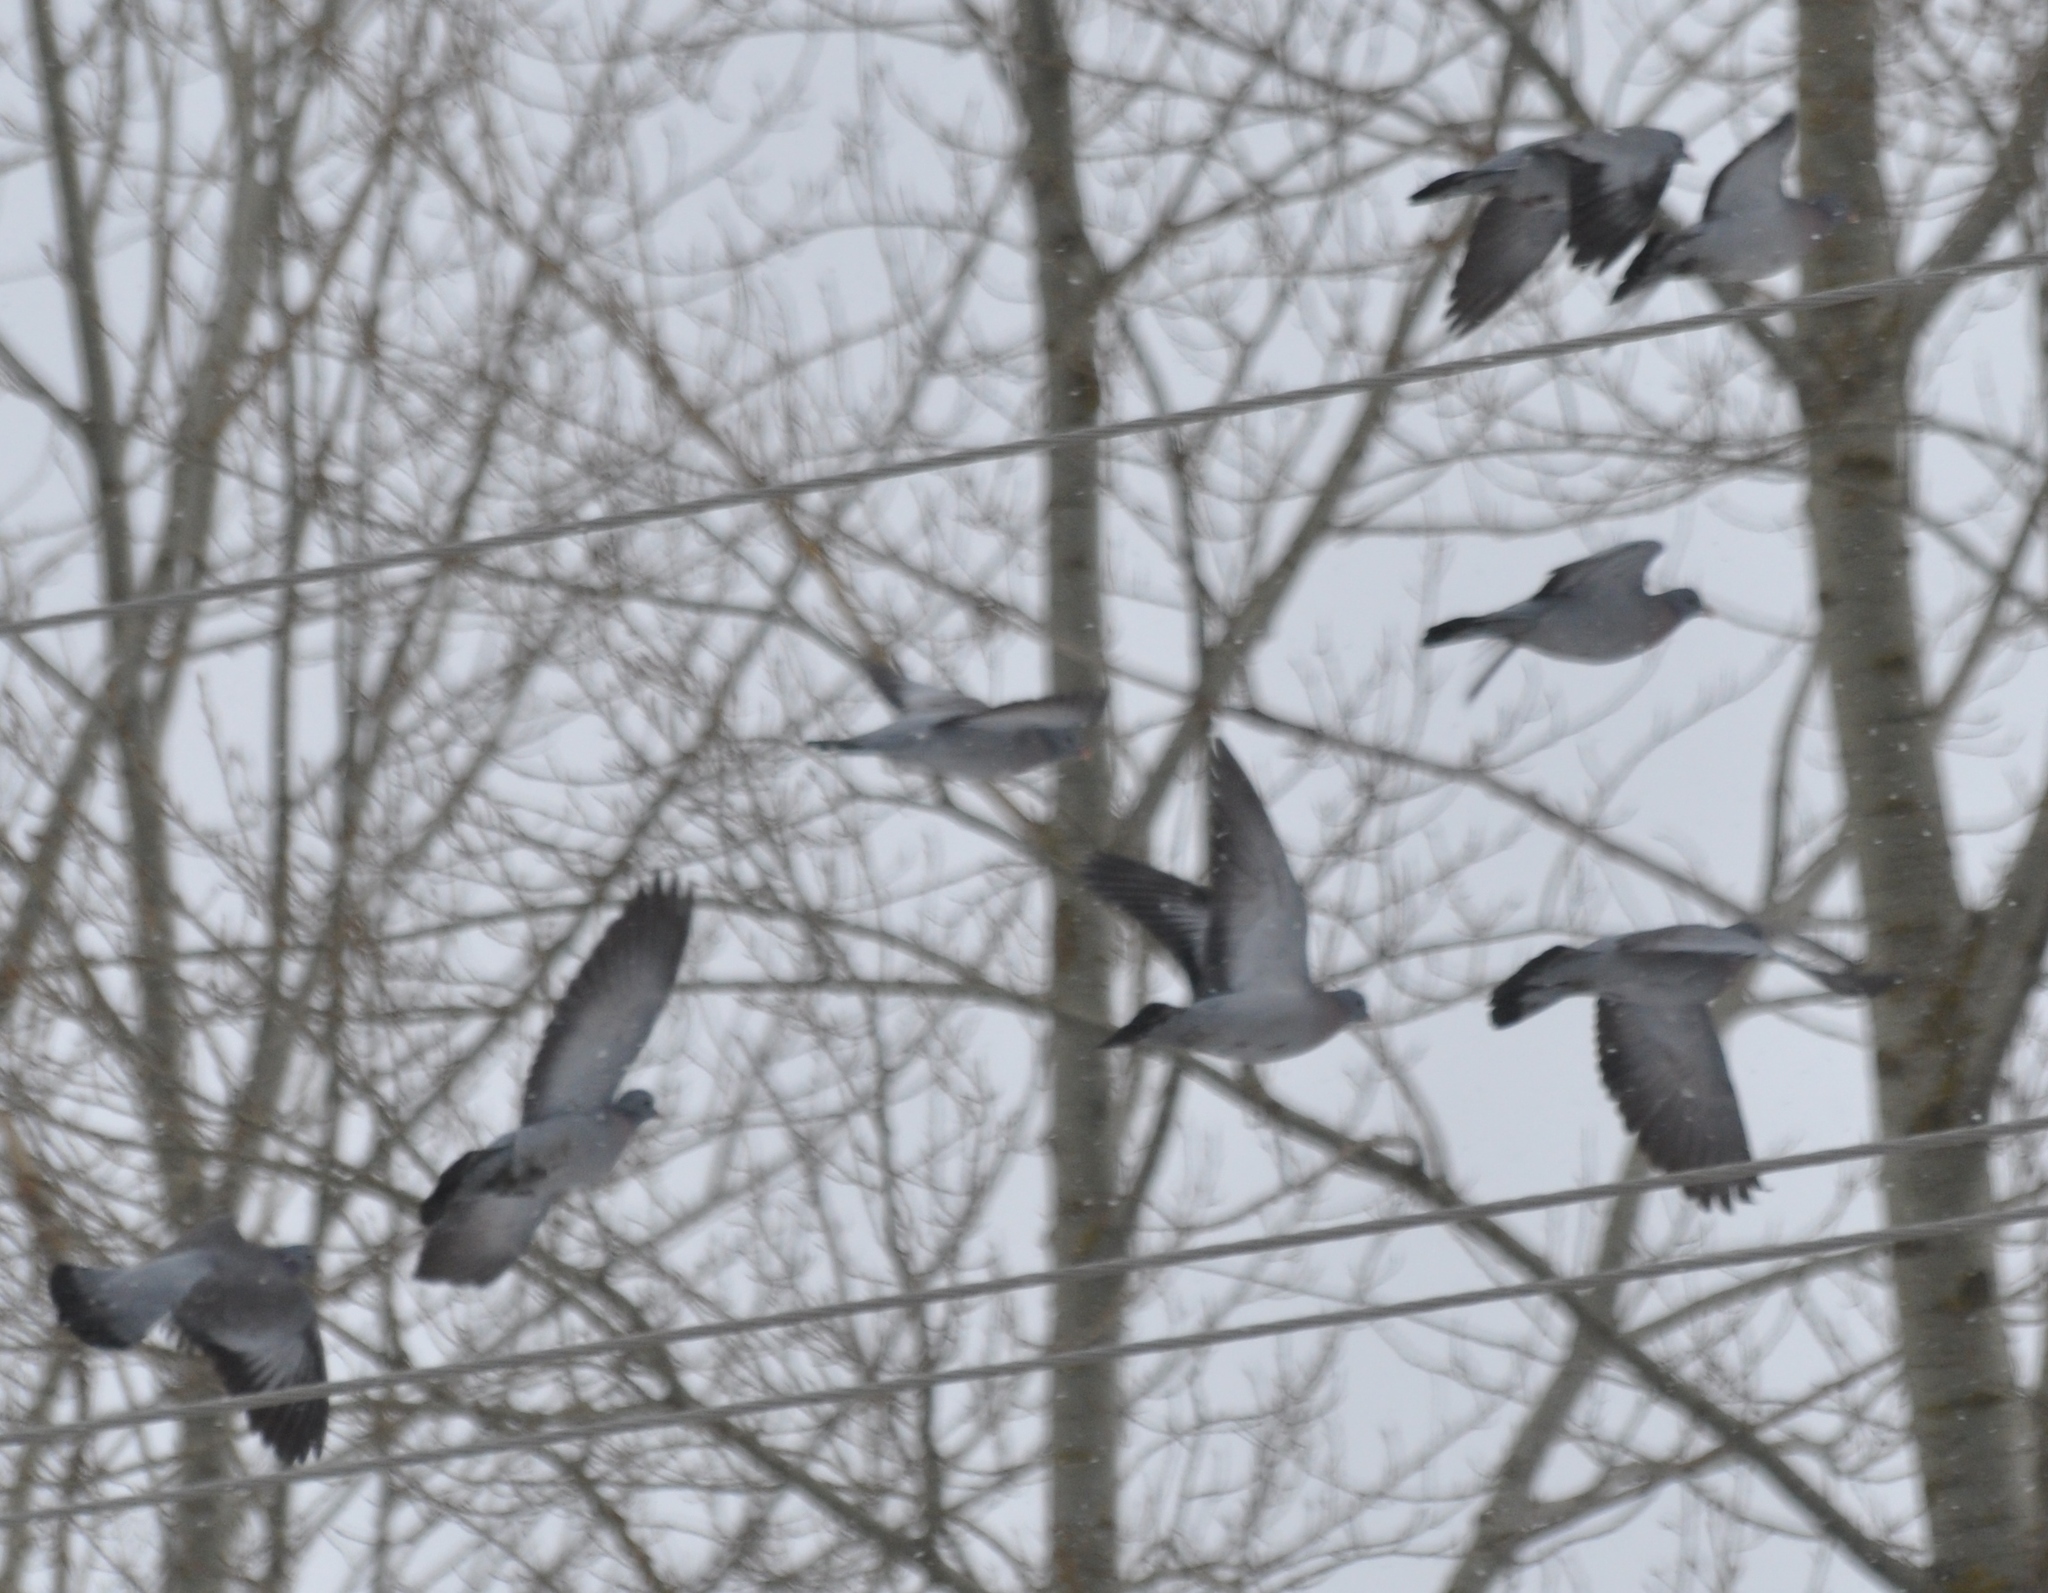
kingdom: Animalia
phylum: Chordata
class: Aves
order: Columbiformes
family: Columbidae
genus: Columba
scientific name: Columba oenas
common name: Stock dove
